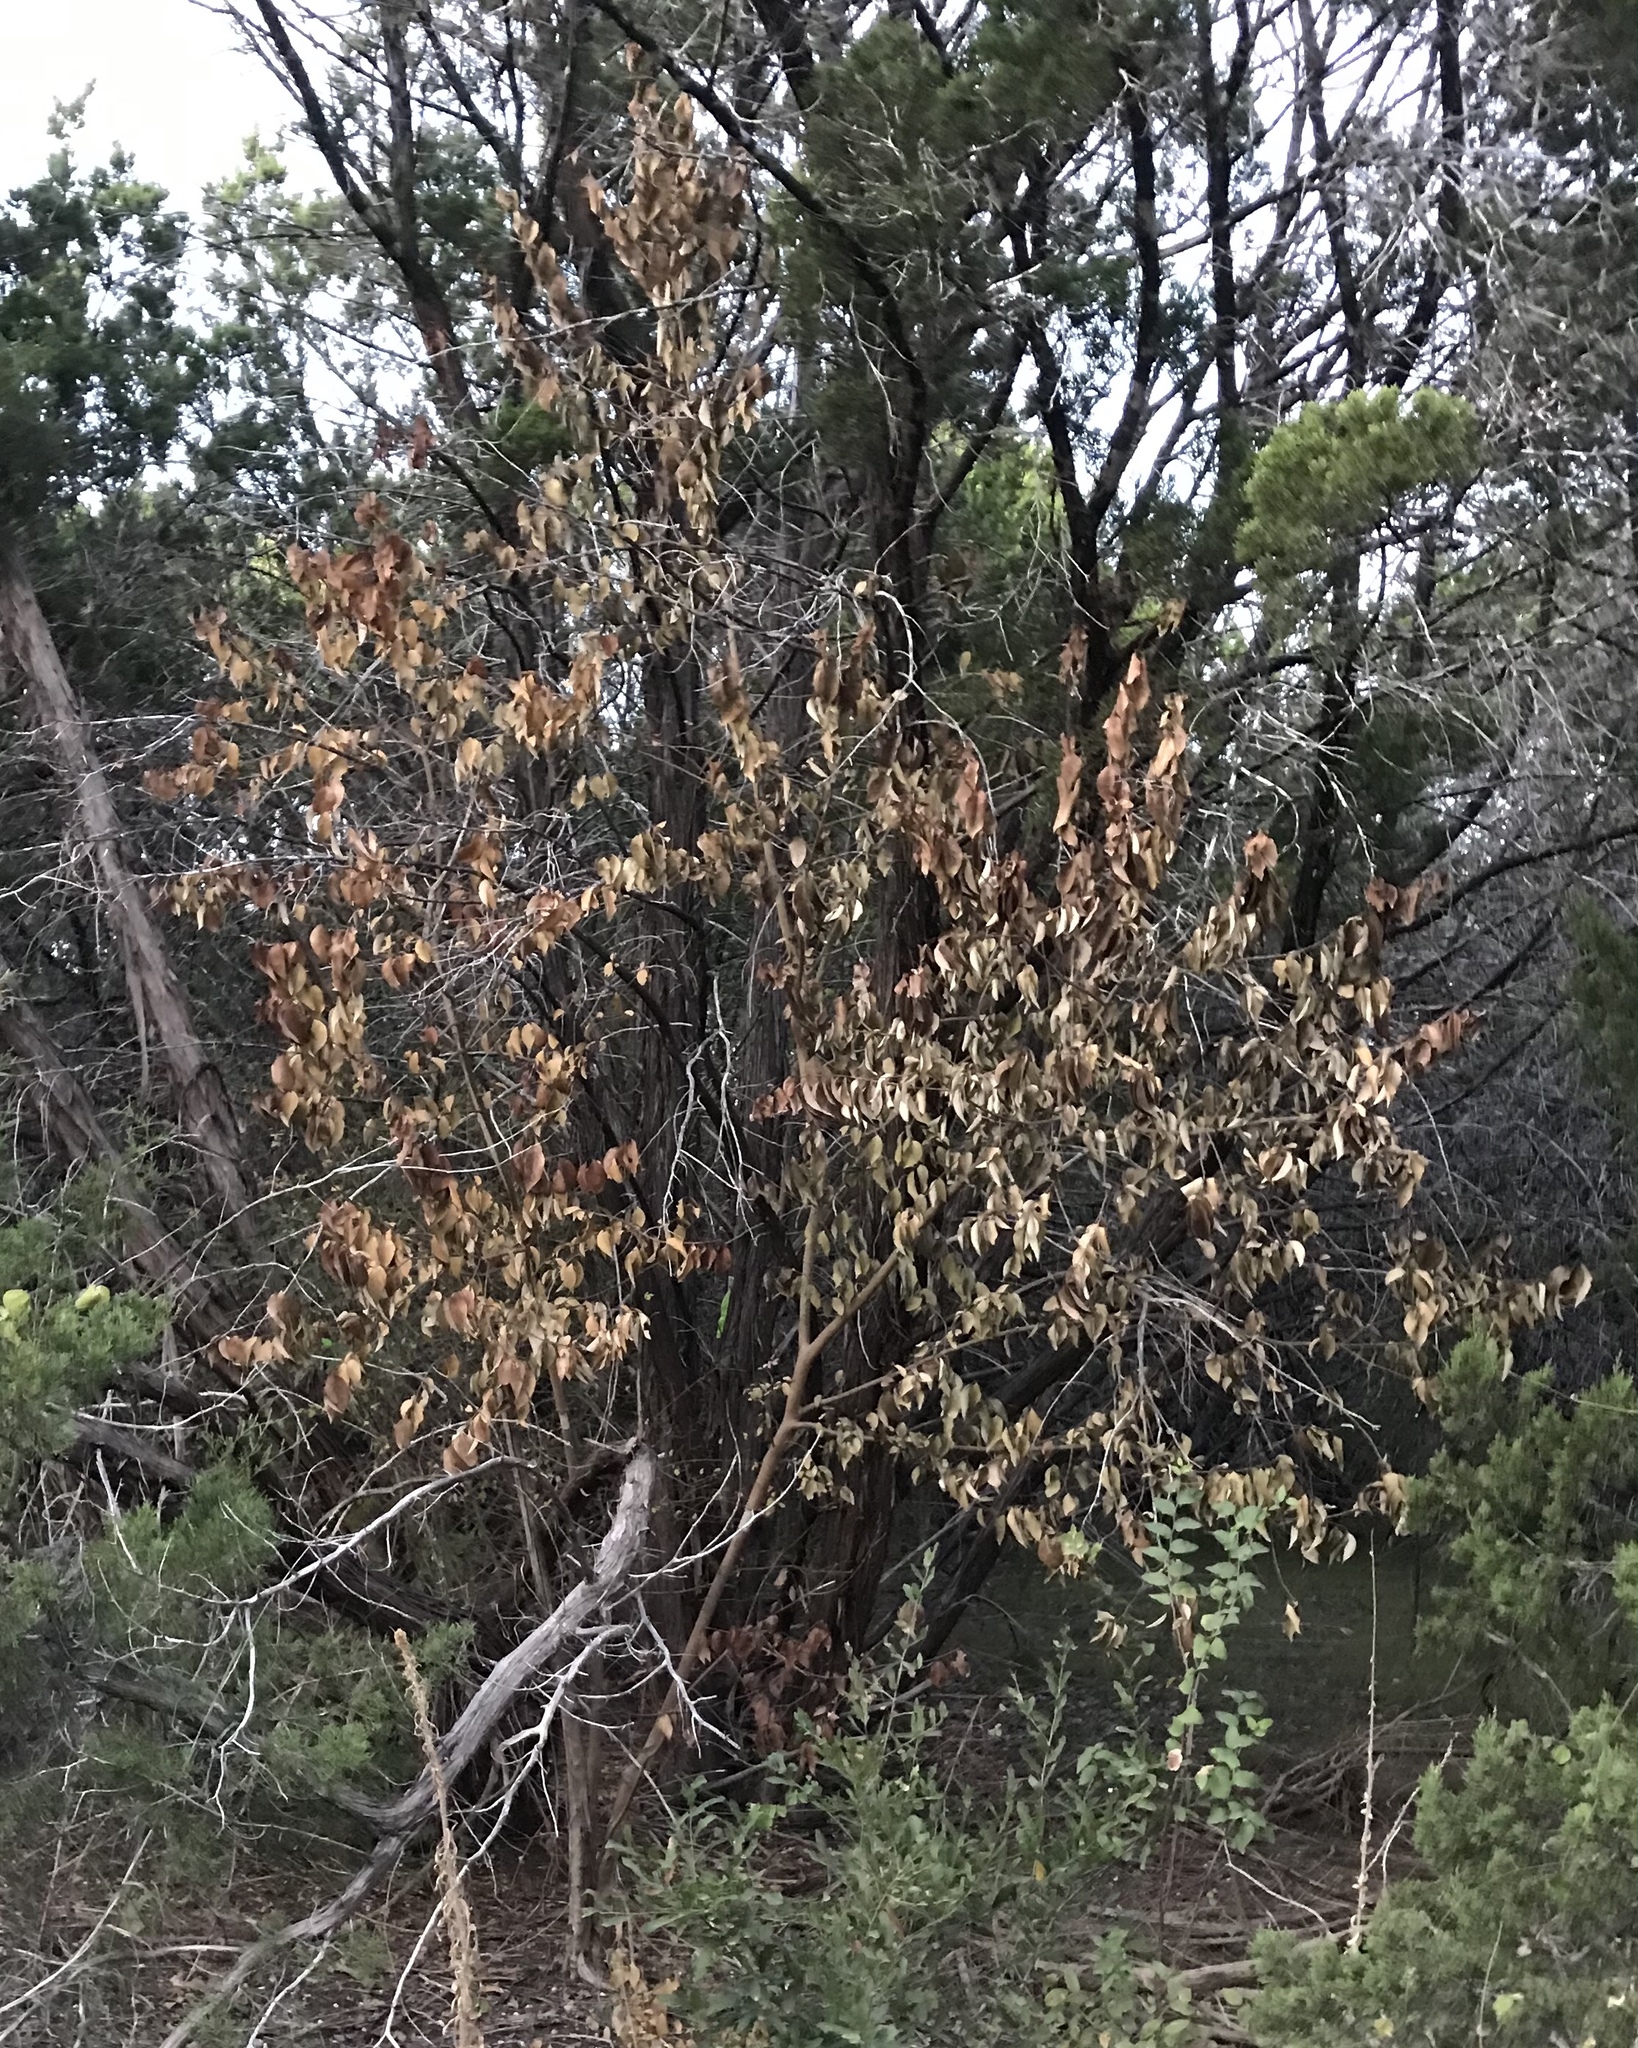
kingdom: Plantae
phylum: Tracheophyta
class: Magnoliopsida
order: Lamiales
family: Oleaceae
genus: Ligustrum
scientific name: Ligustrum lucidum
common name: Glossy privet
